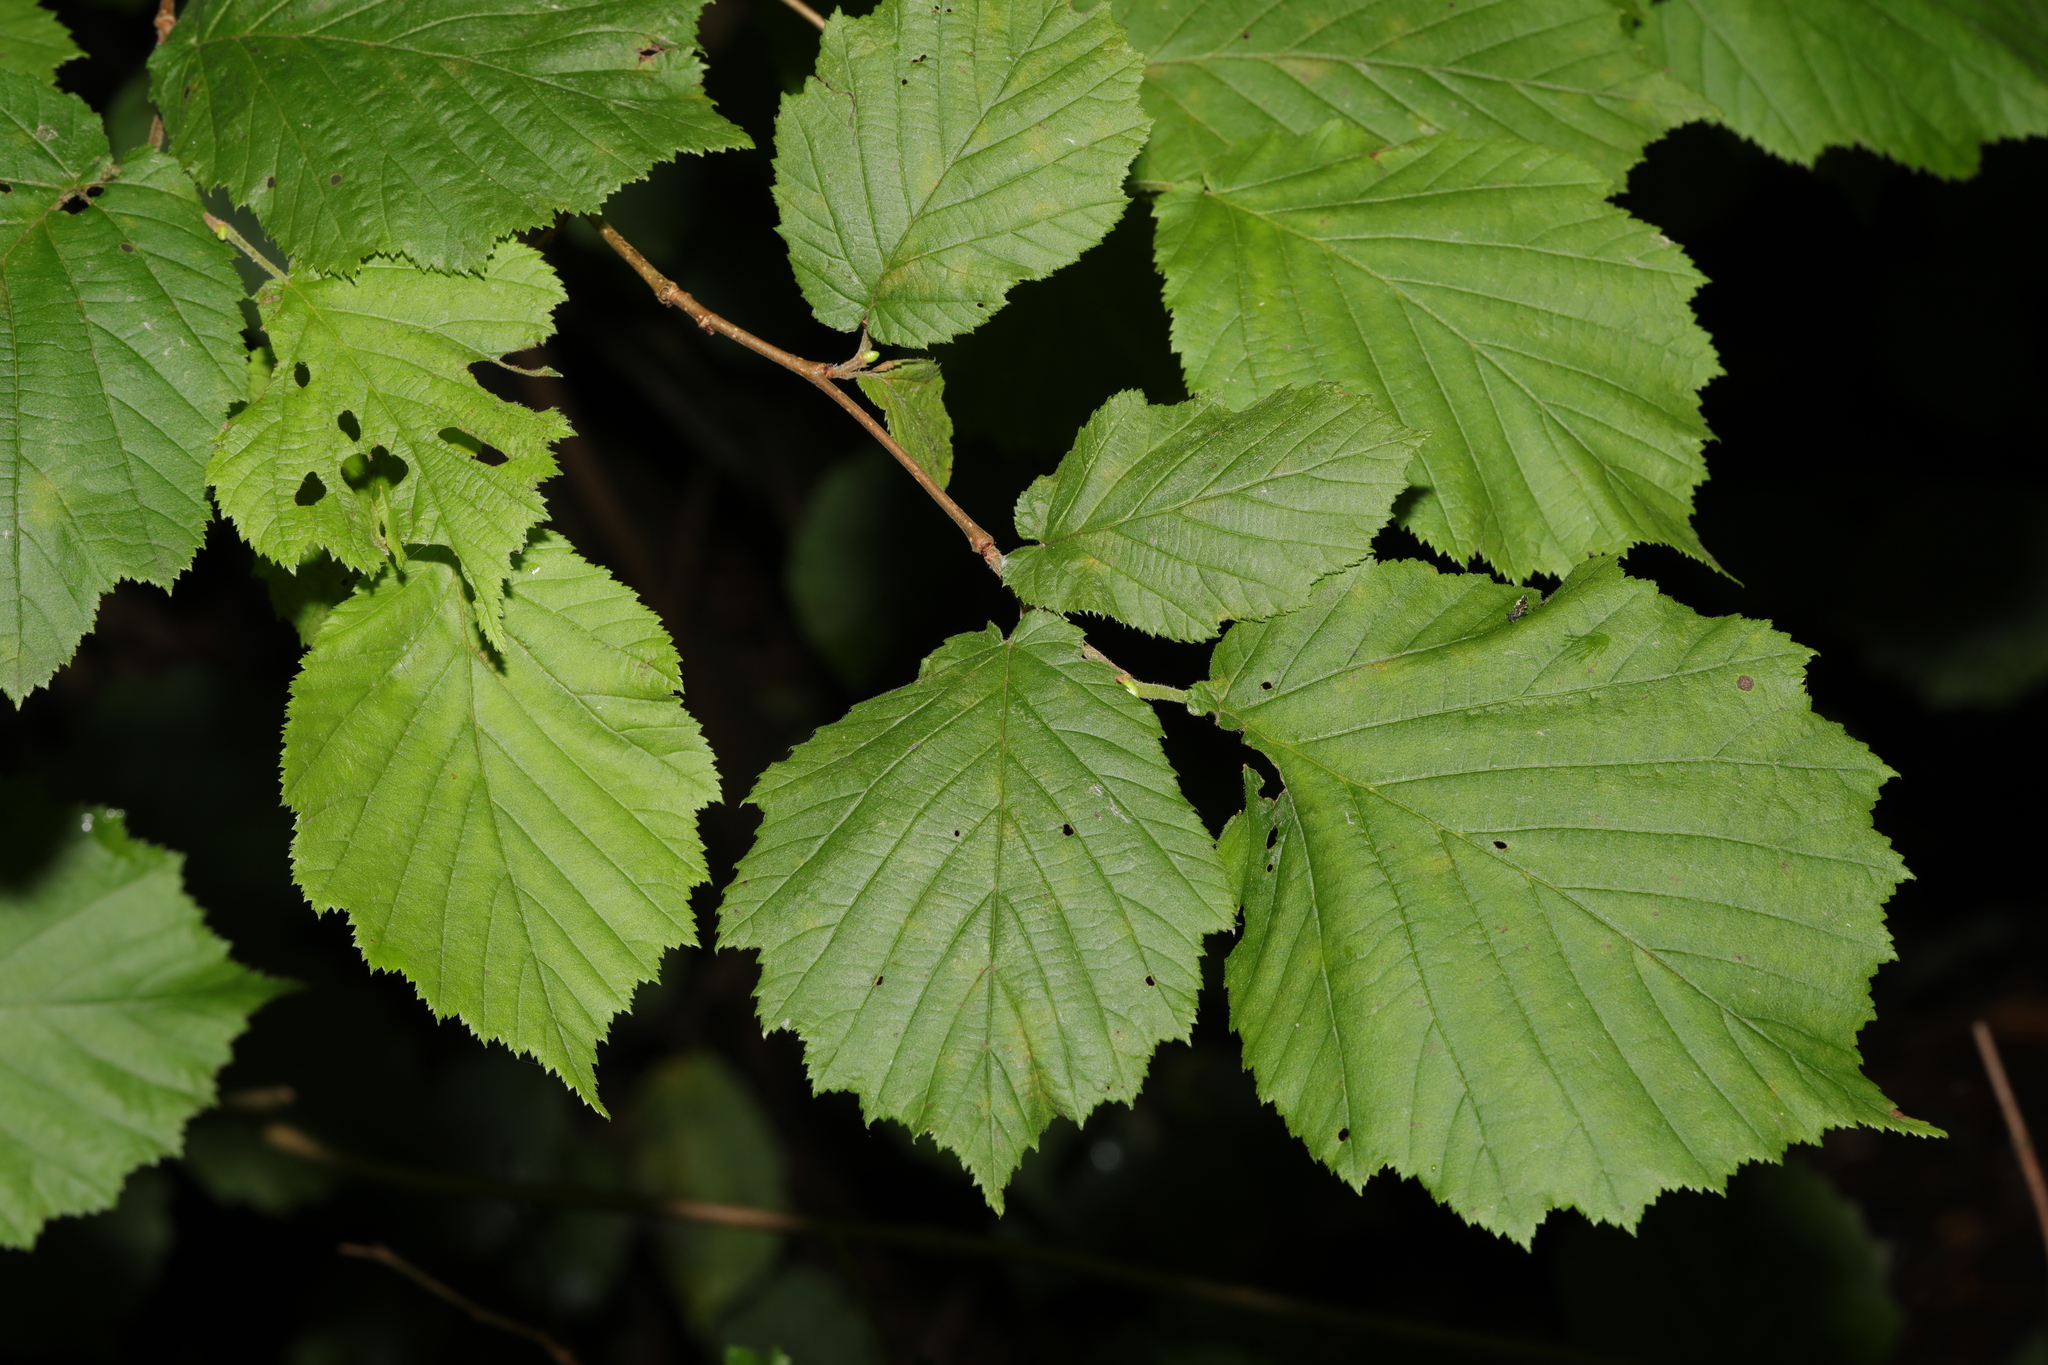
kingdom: Plantae
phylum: Tracheophyta
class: Magnoliopsida
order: Fagales
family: Betulaceae
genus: Corylus
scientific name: Corylus avellana
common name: European hazel
